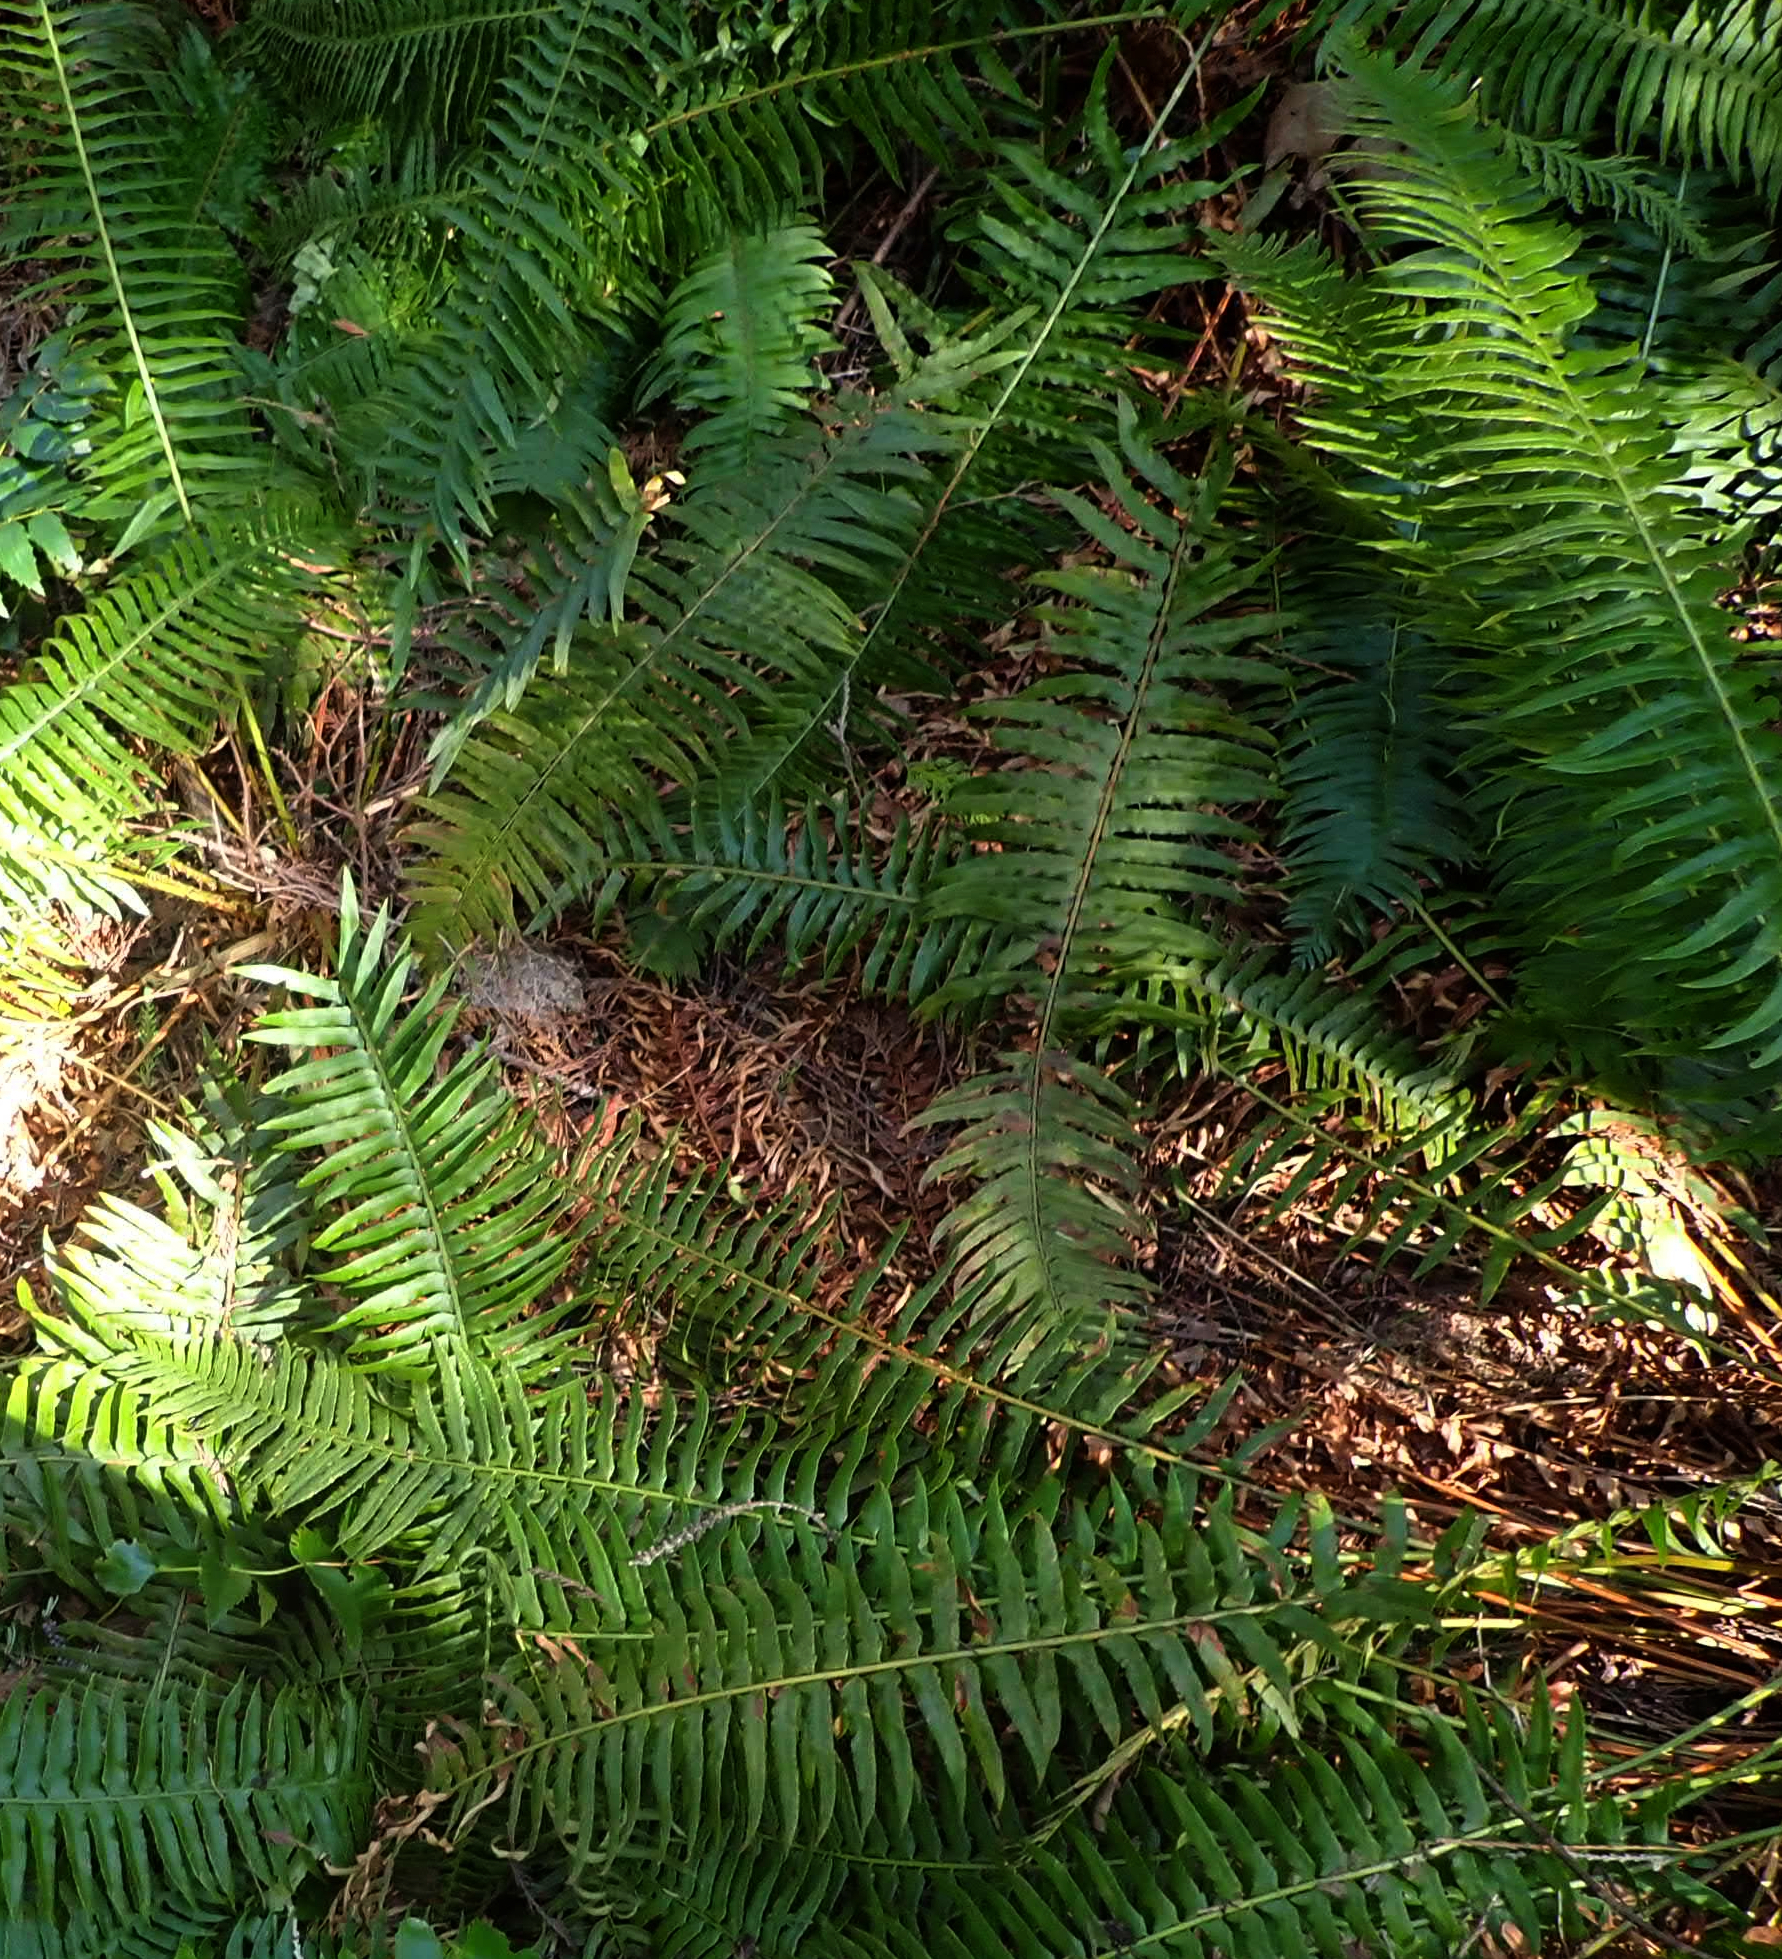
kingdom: Plantae
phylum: Tracheophyta
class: Polypodiopsida
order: Polypodiales
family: Dryopteridaceae
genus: Polystichum
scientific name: Polystichum munitum
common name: Western sword-fern
